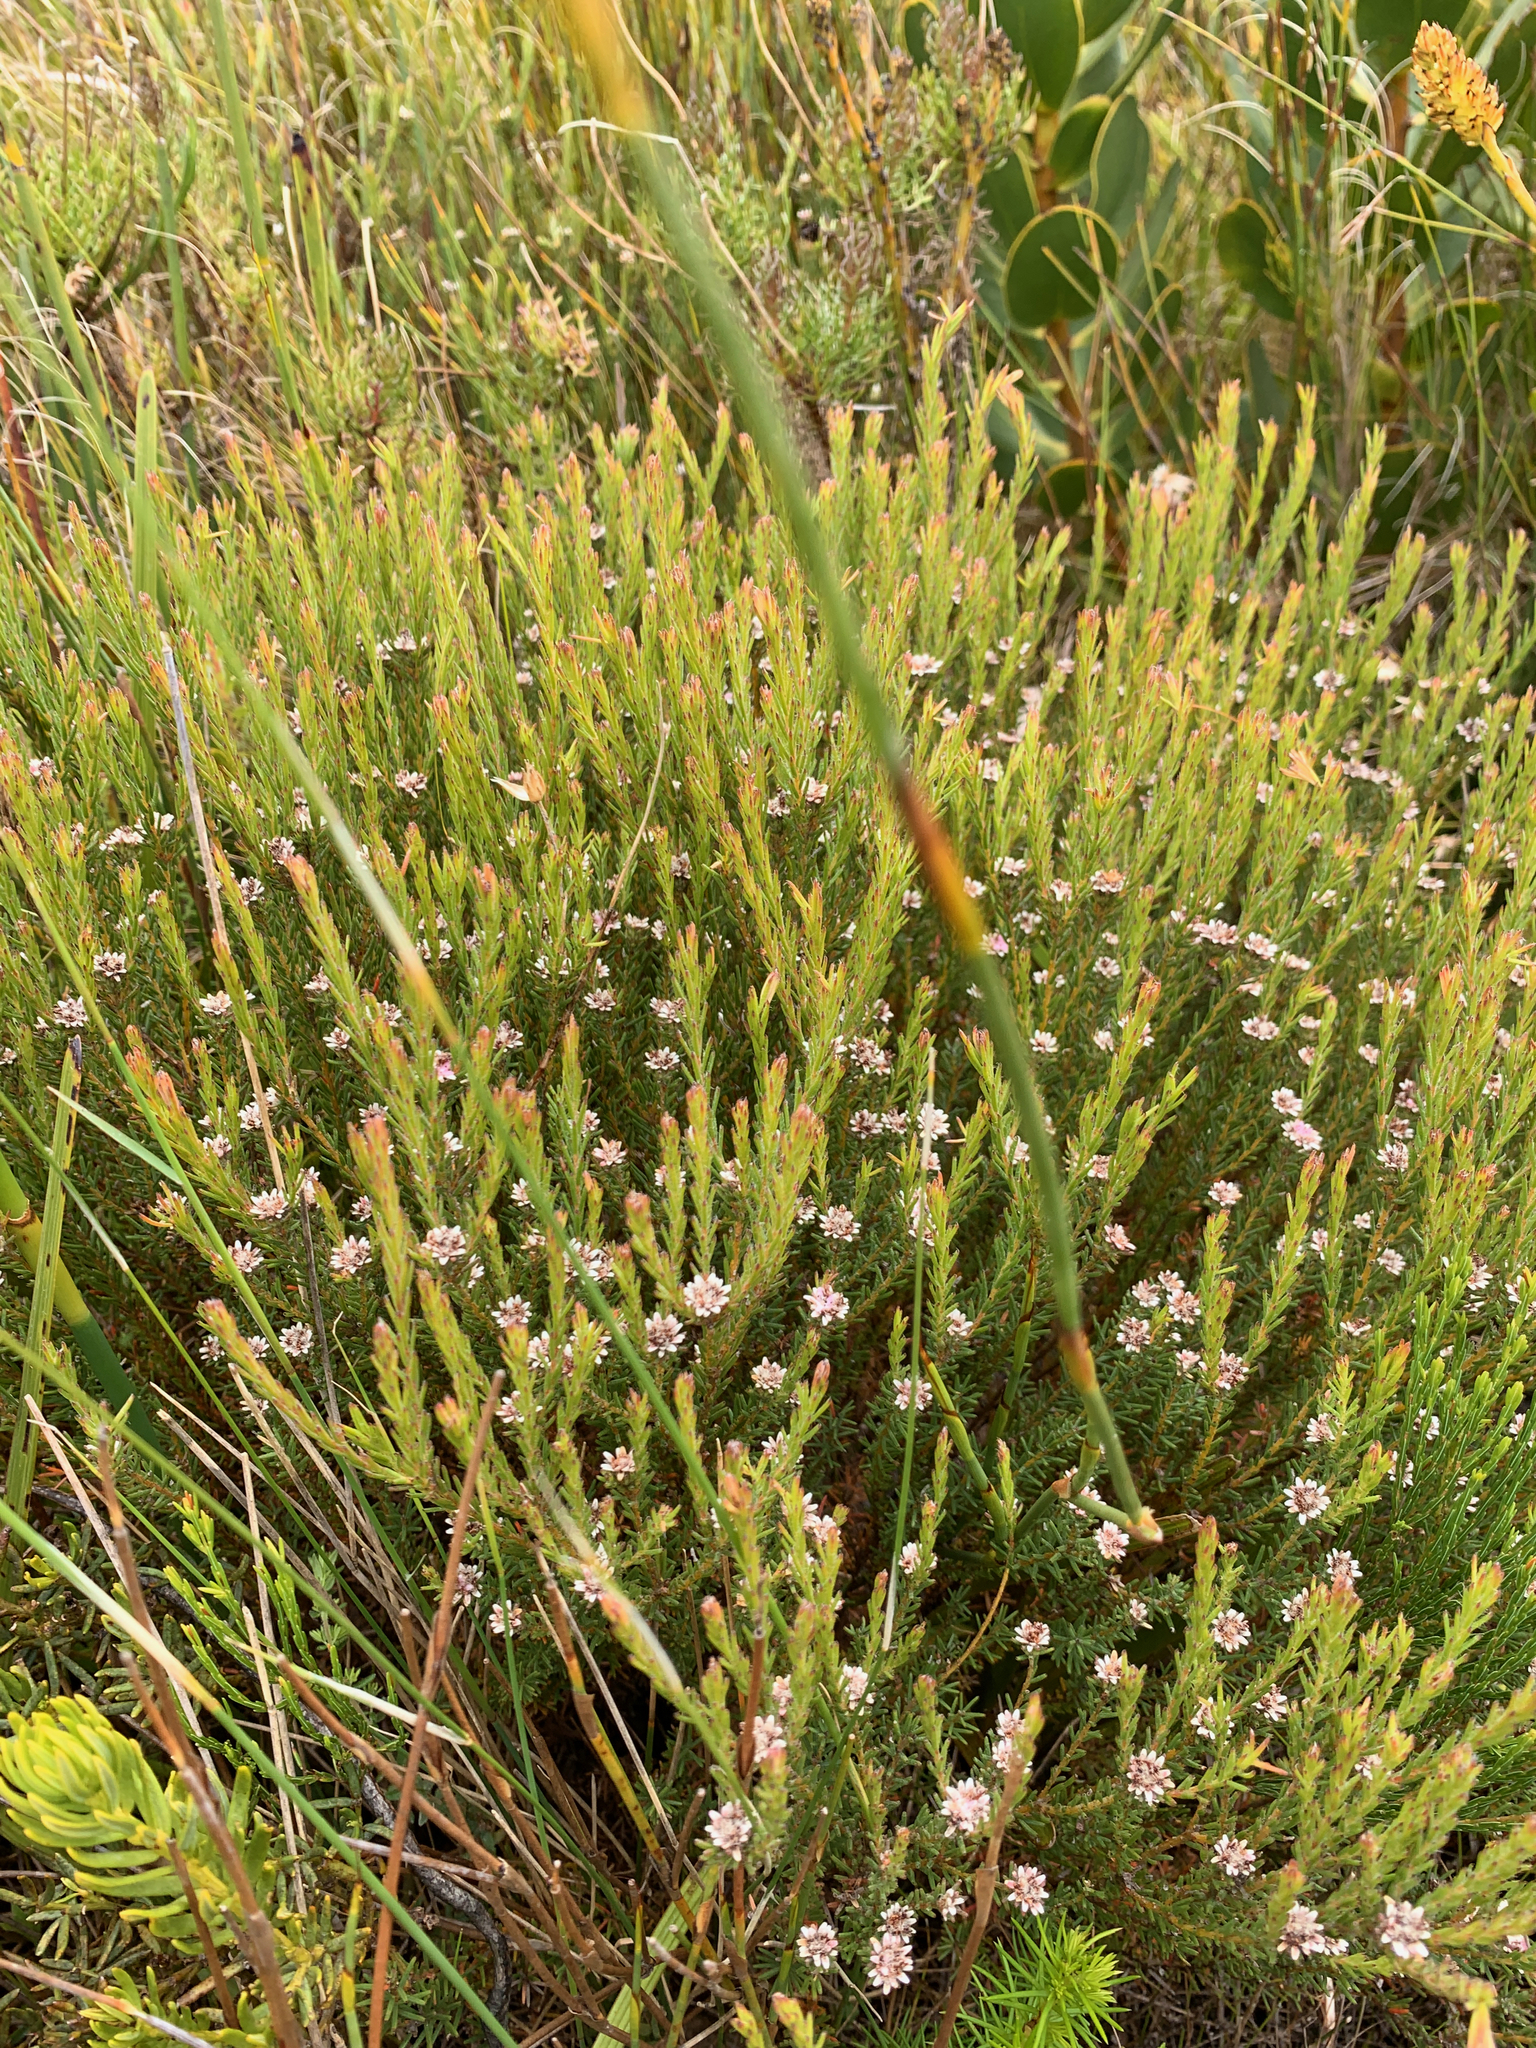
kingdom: Plantae
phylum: Tracheophyta
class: Magnoliopsida
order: Bruniales
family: Bruniaceae
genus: Staavia
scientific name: Staavia radiata
